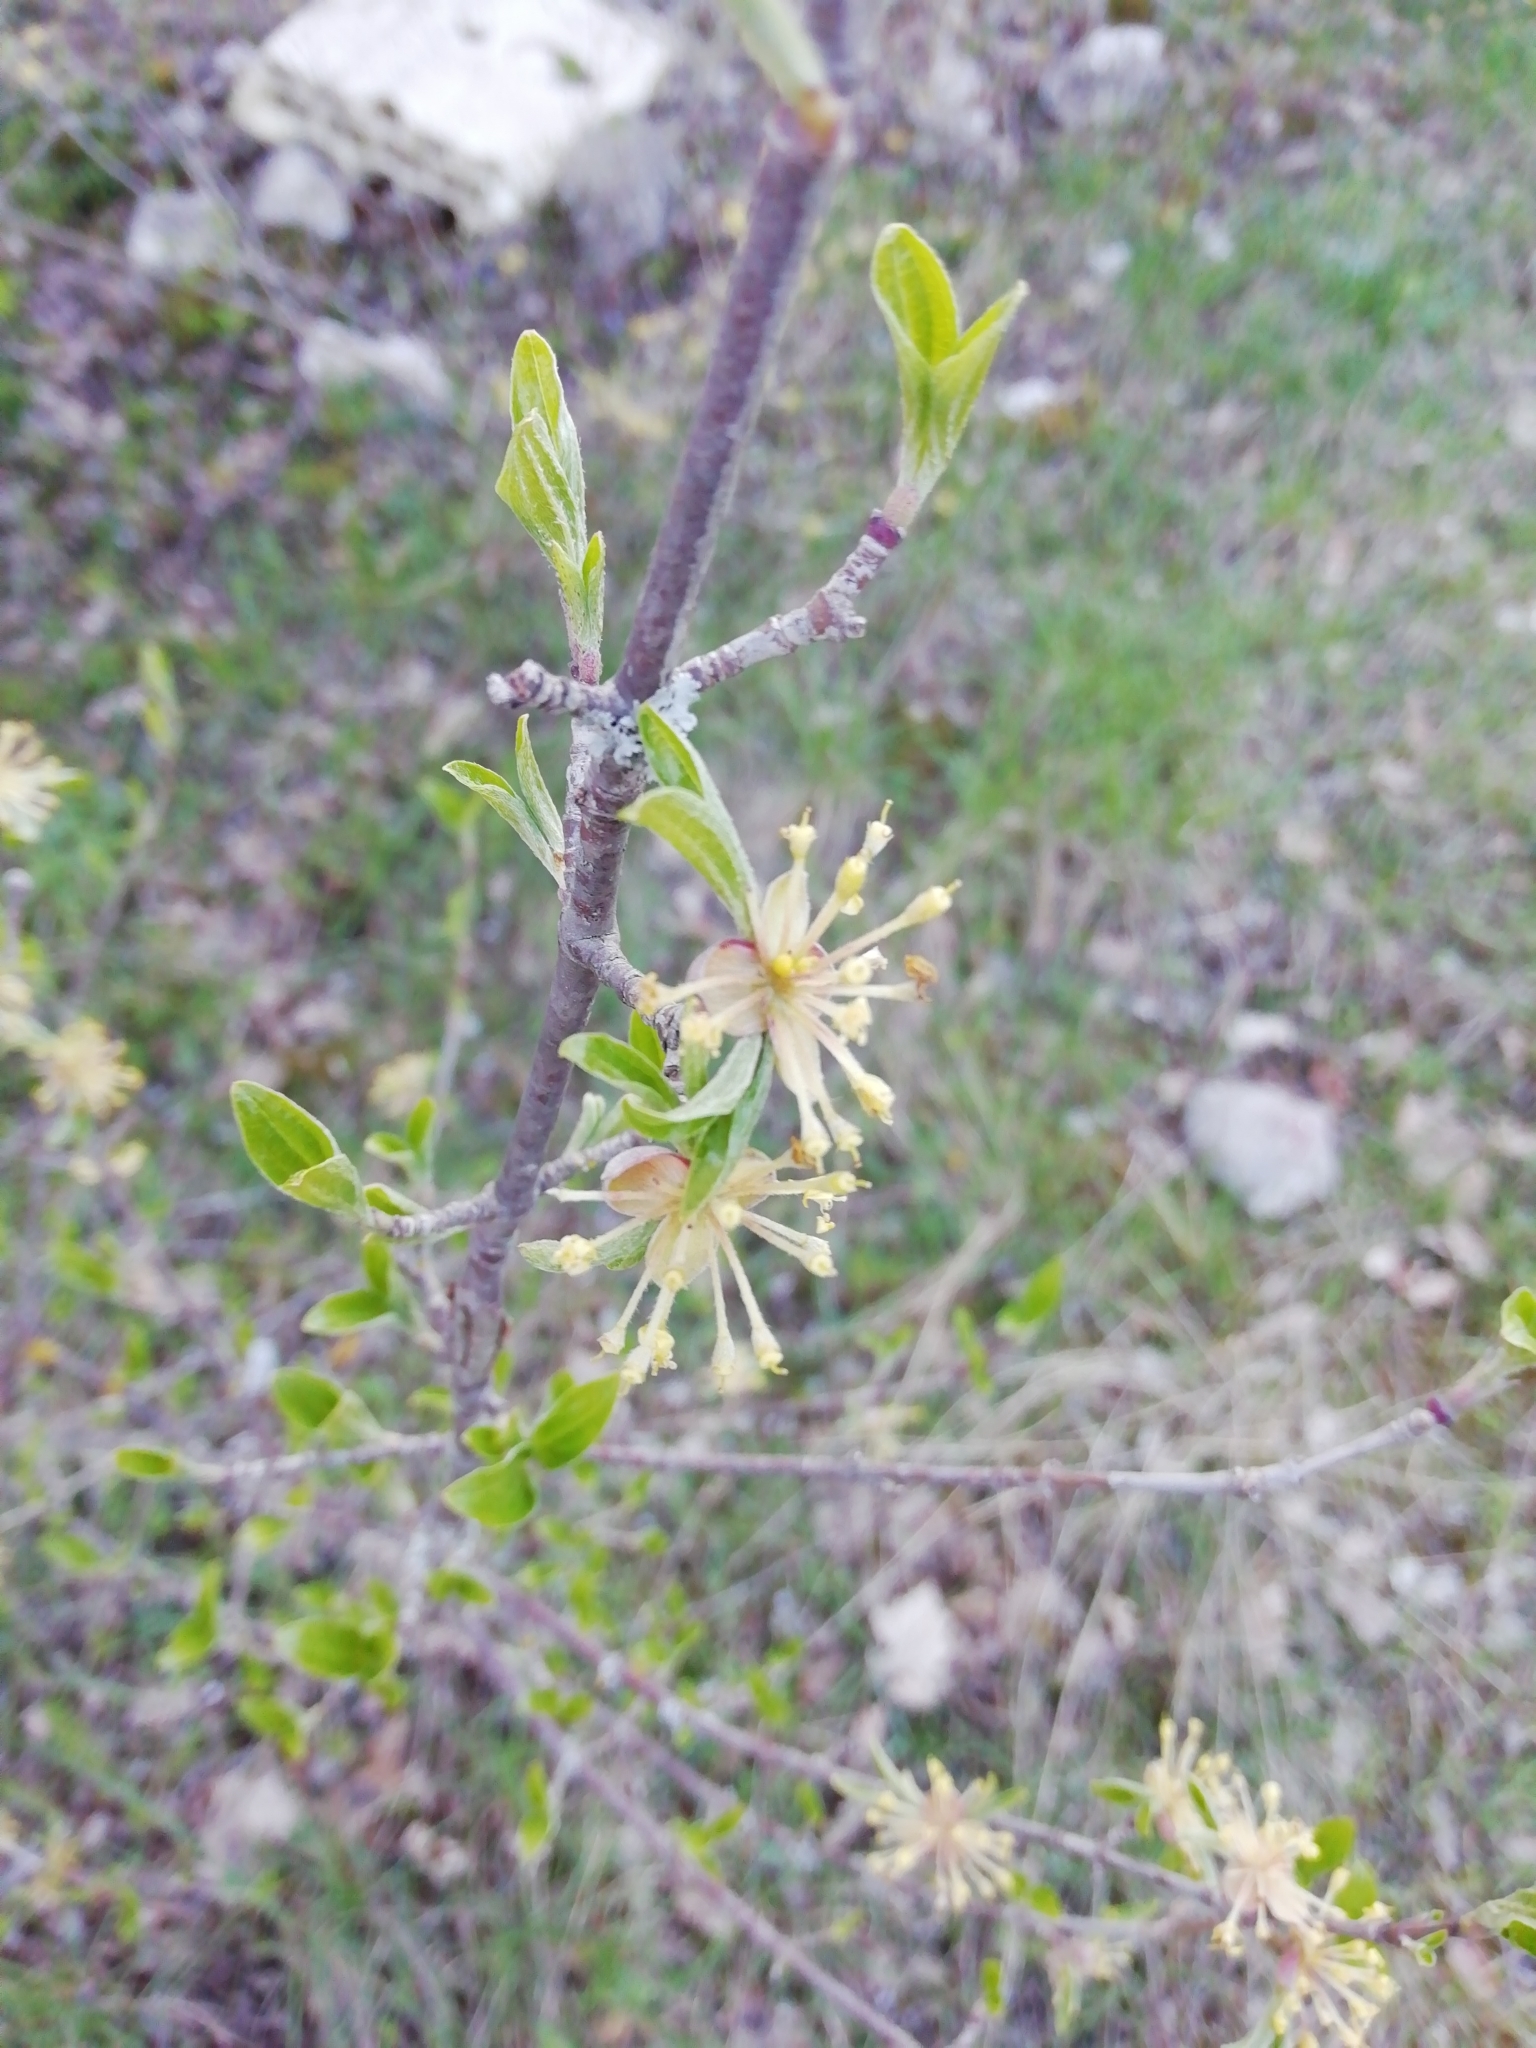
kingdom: Plantae
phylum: Tracheophyta
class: Magnoliopsida
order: Cornales
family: Cornaceae
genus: Cornus
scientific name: Cornus mas
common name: Cornelian-cherry
